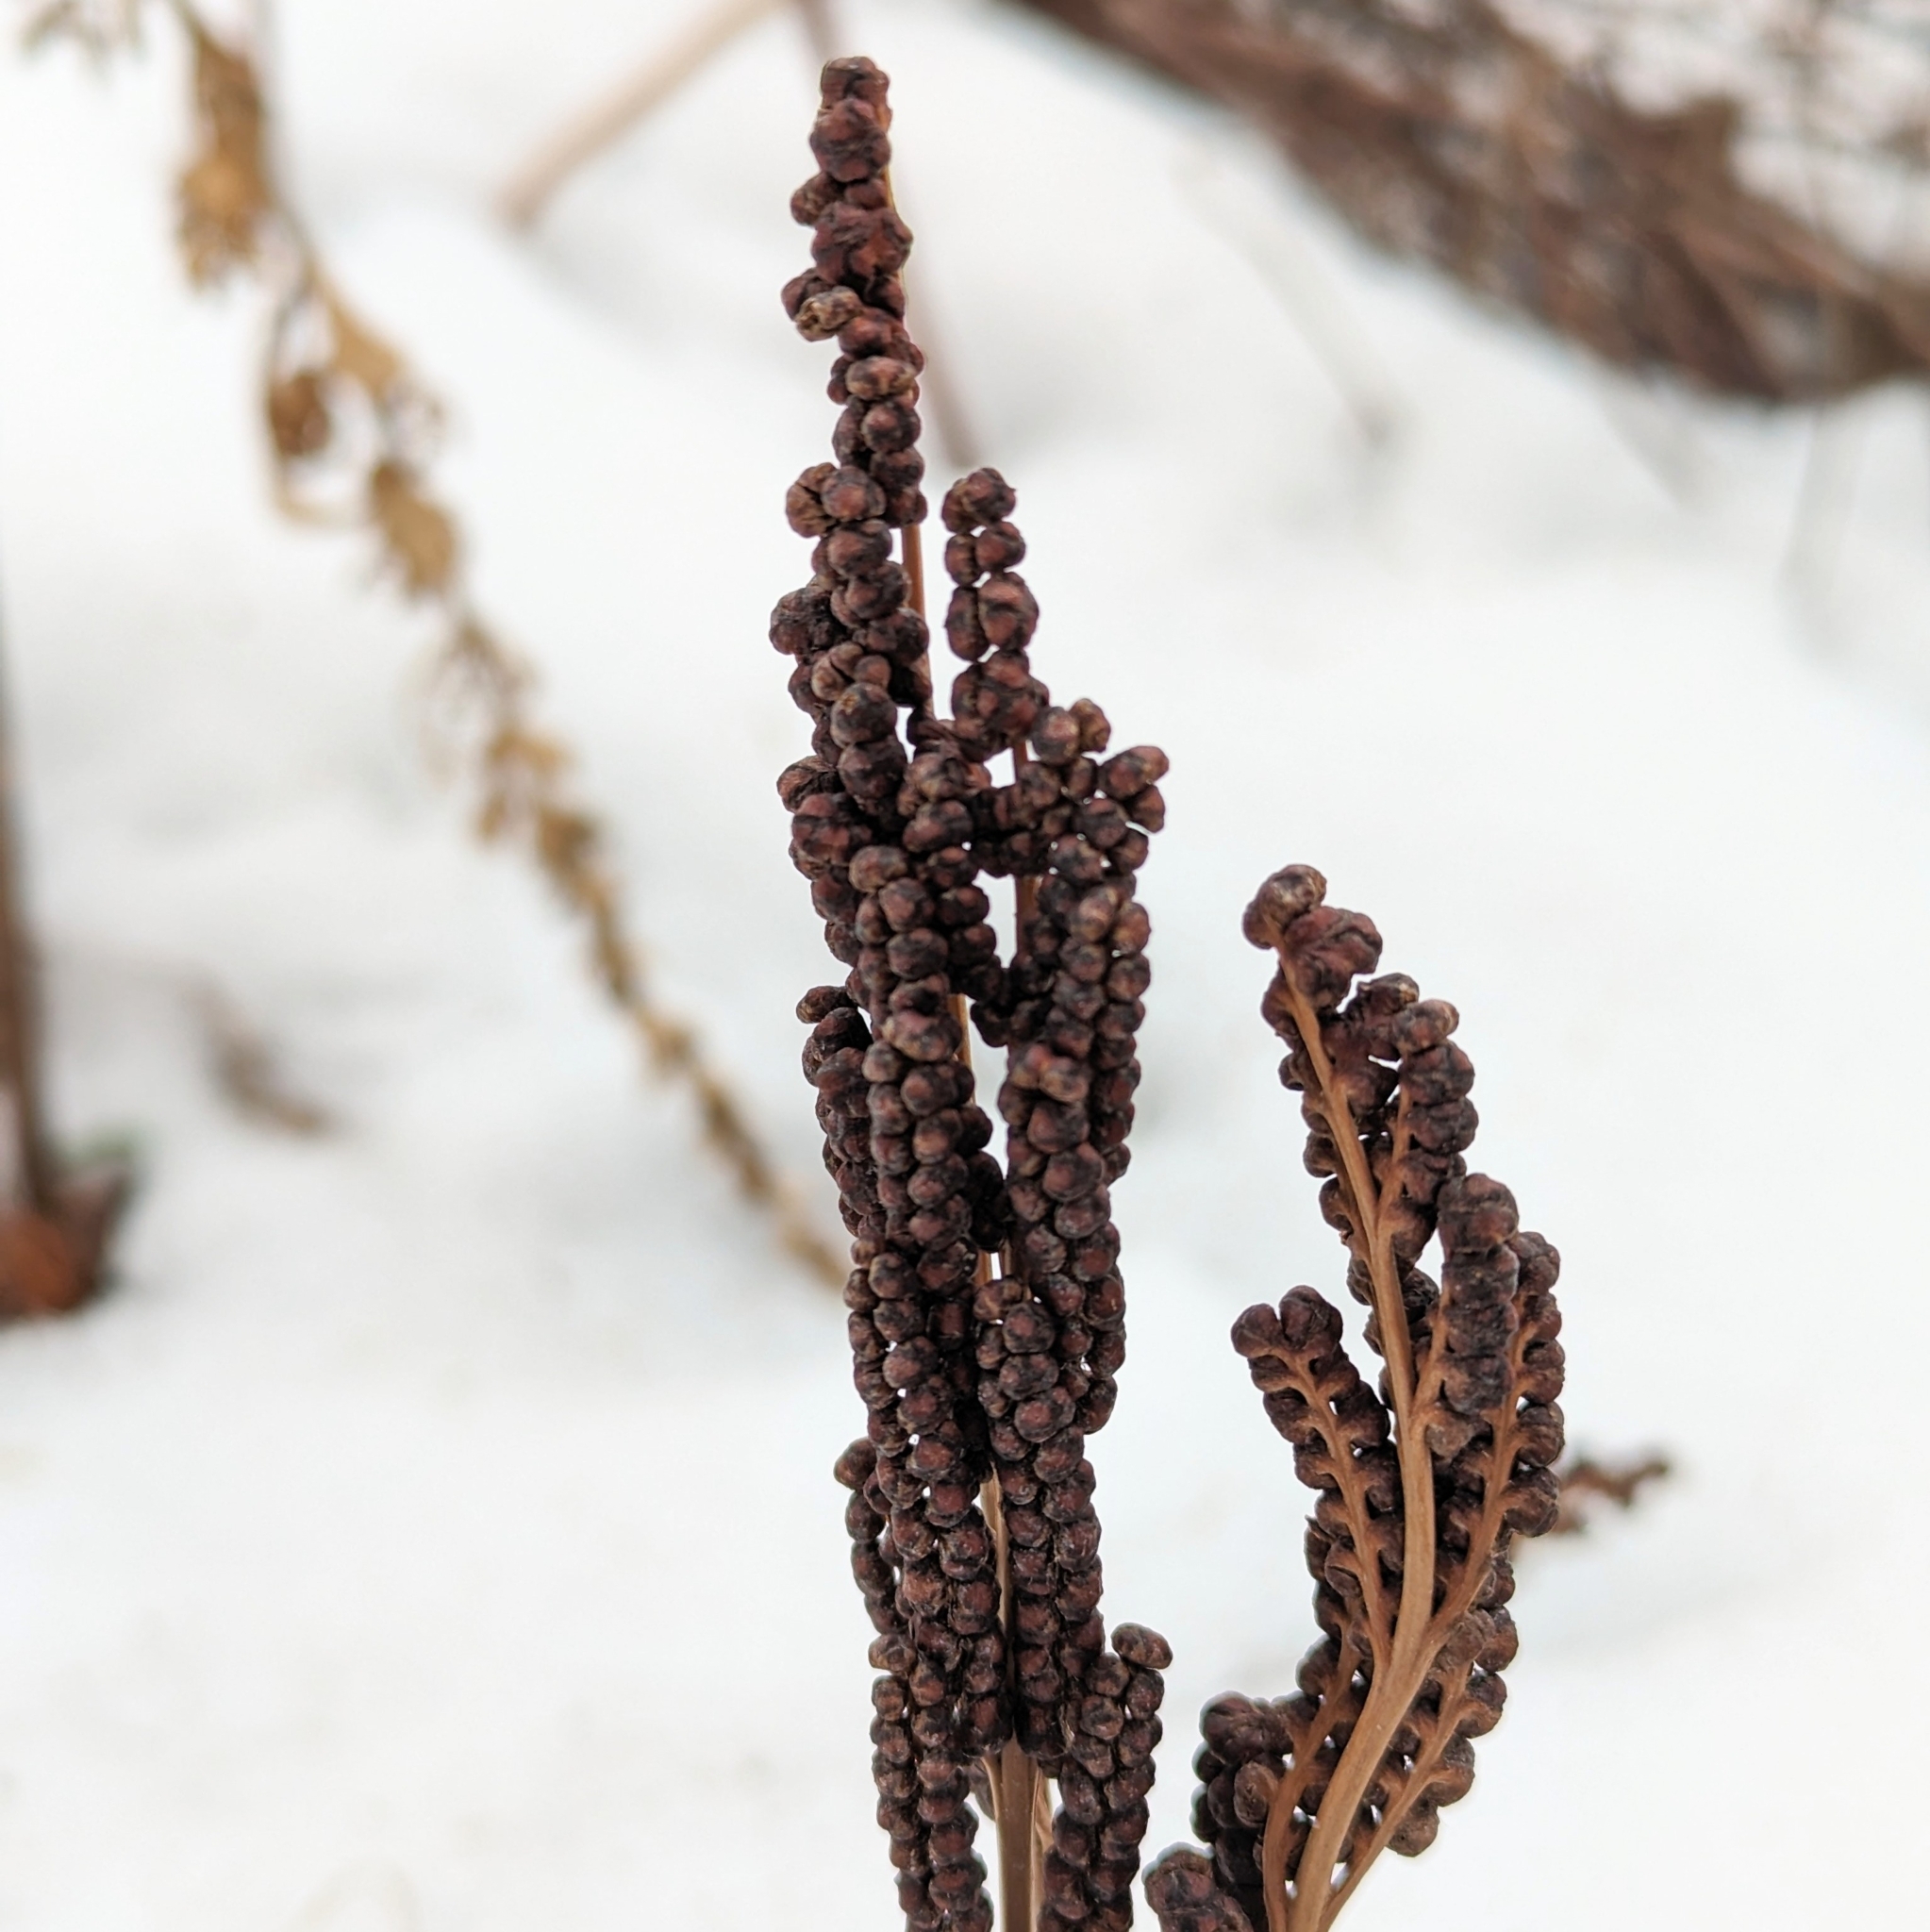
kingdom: Plantae
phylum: Tracheophyta
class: Polypodiopsida
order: Polypodiales
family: Onocleaceae
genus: Onoclea
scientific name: Onoclea sensibilis
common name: Sensitive fern
